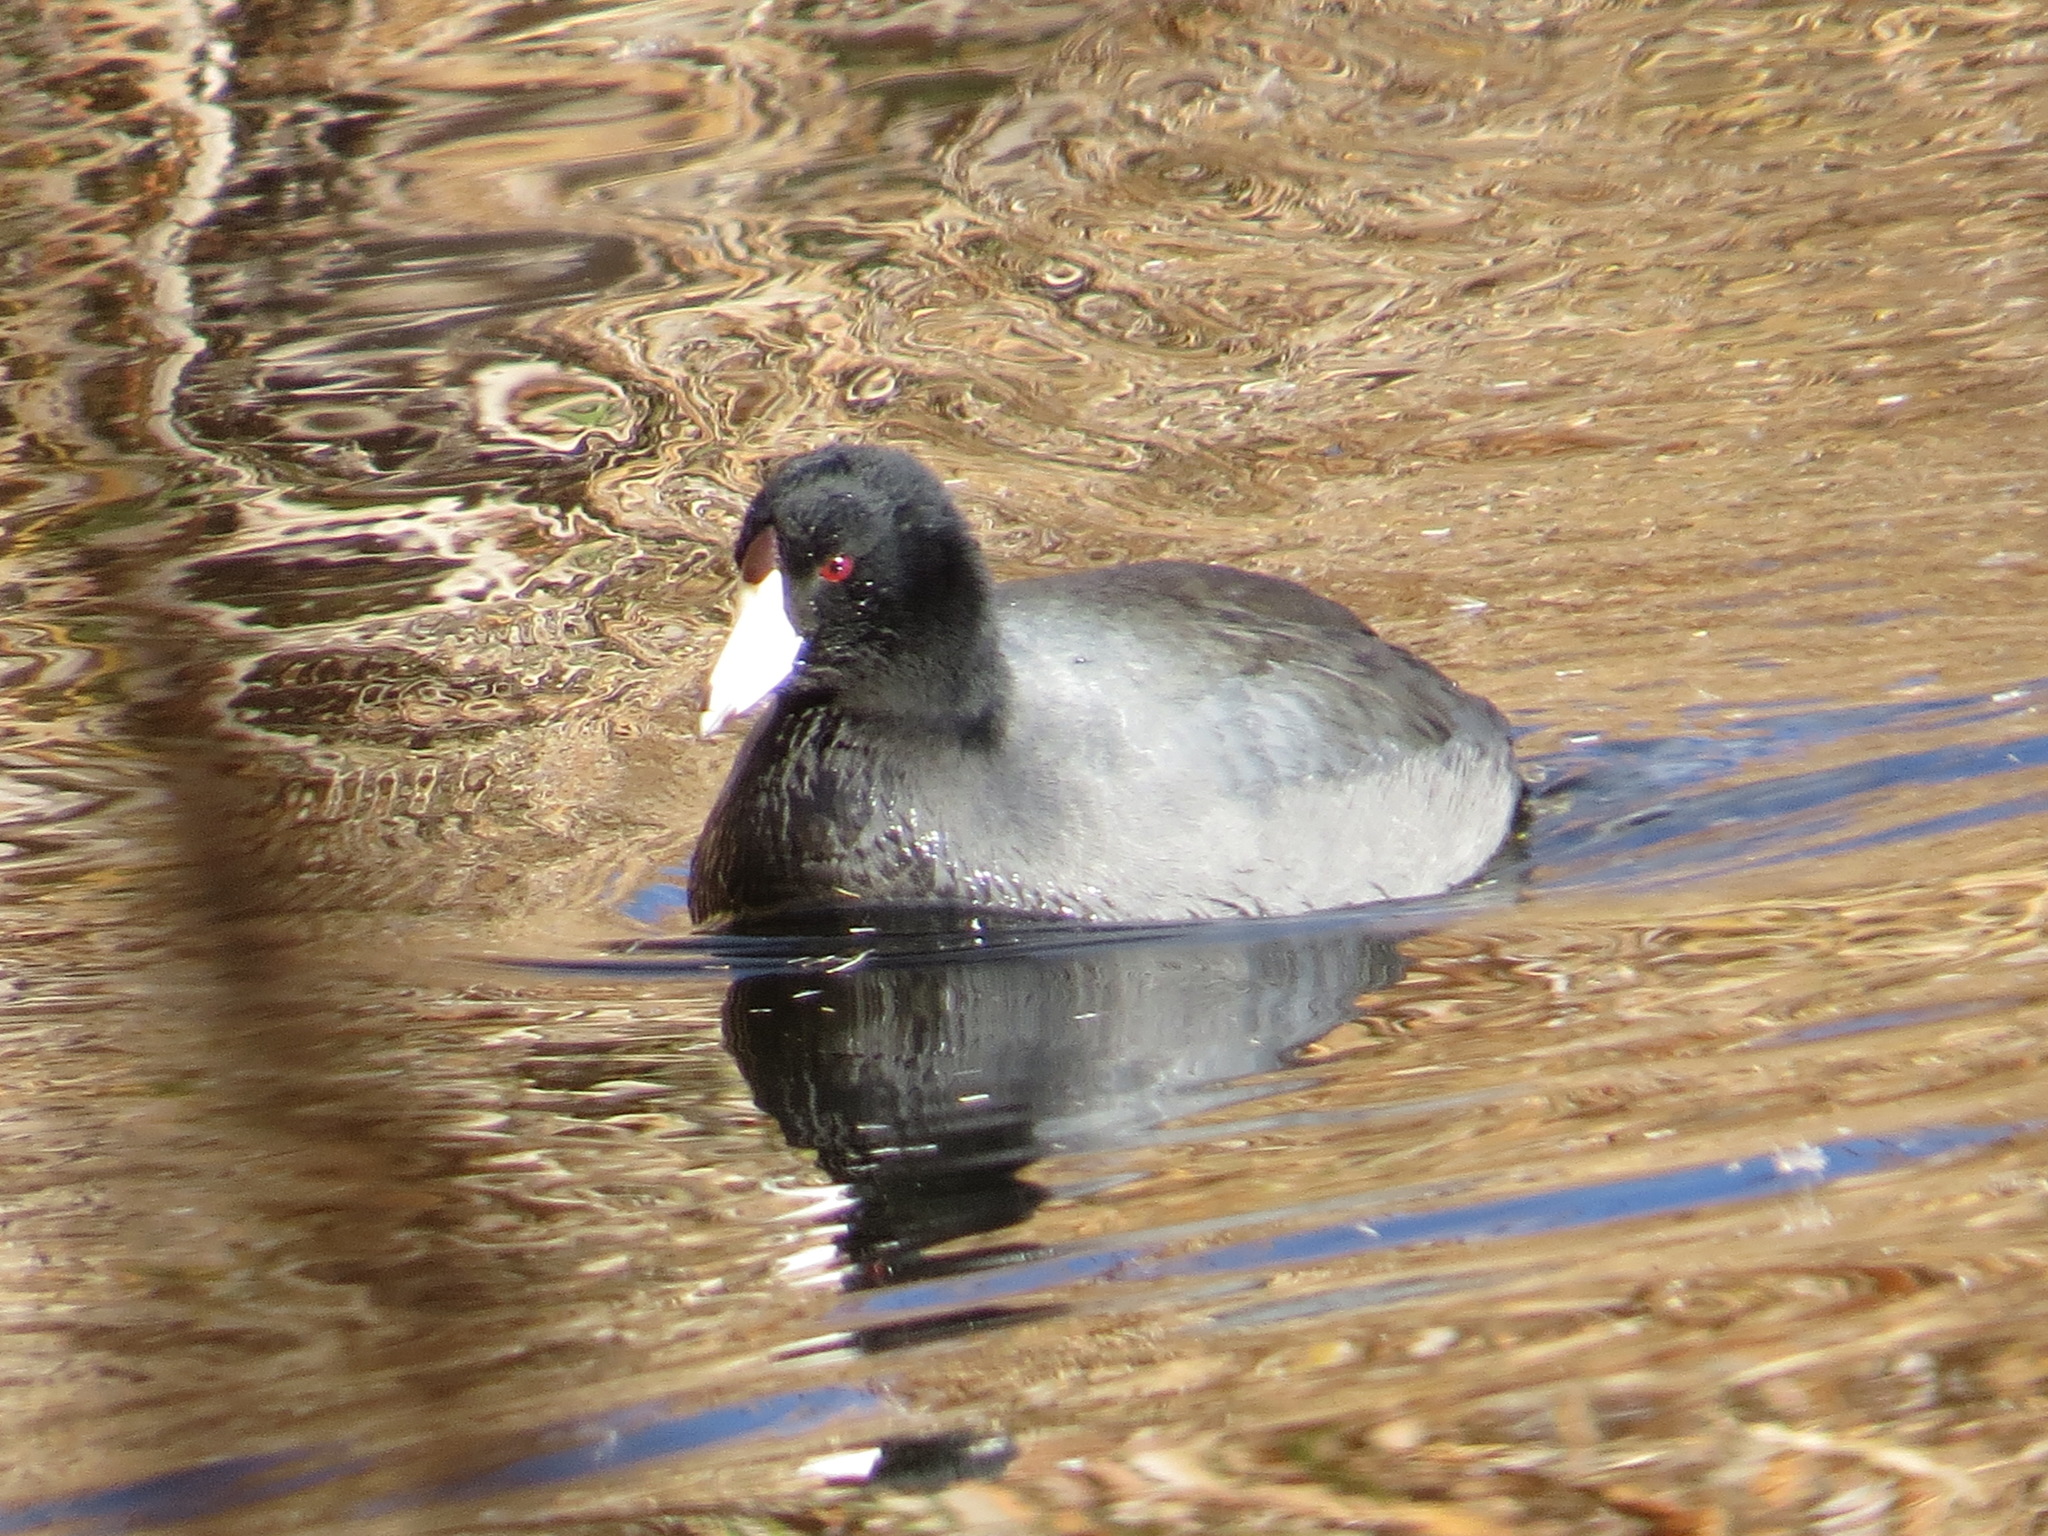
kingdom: Animalia
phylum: Chordata
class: Aves
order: Gruiformes
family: Rallidae
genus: Fulica
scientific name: Fulica americana
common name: American coot
